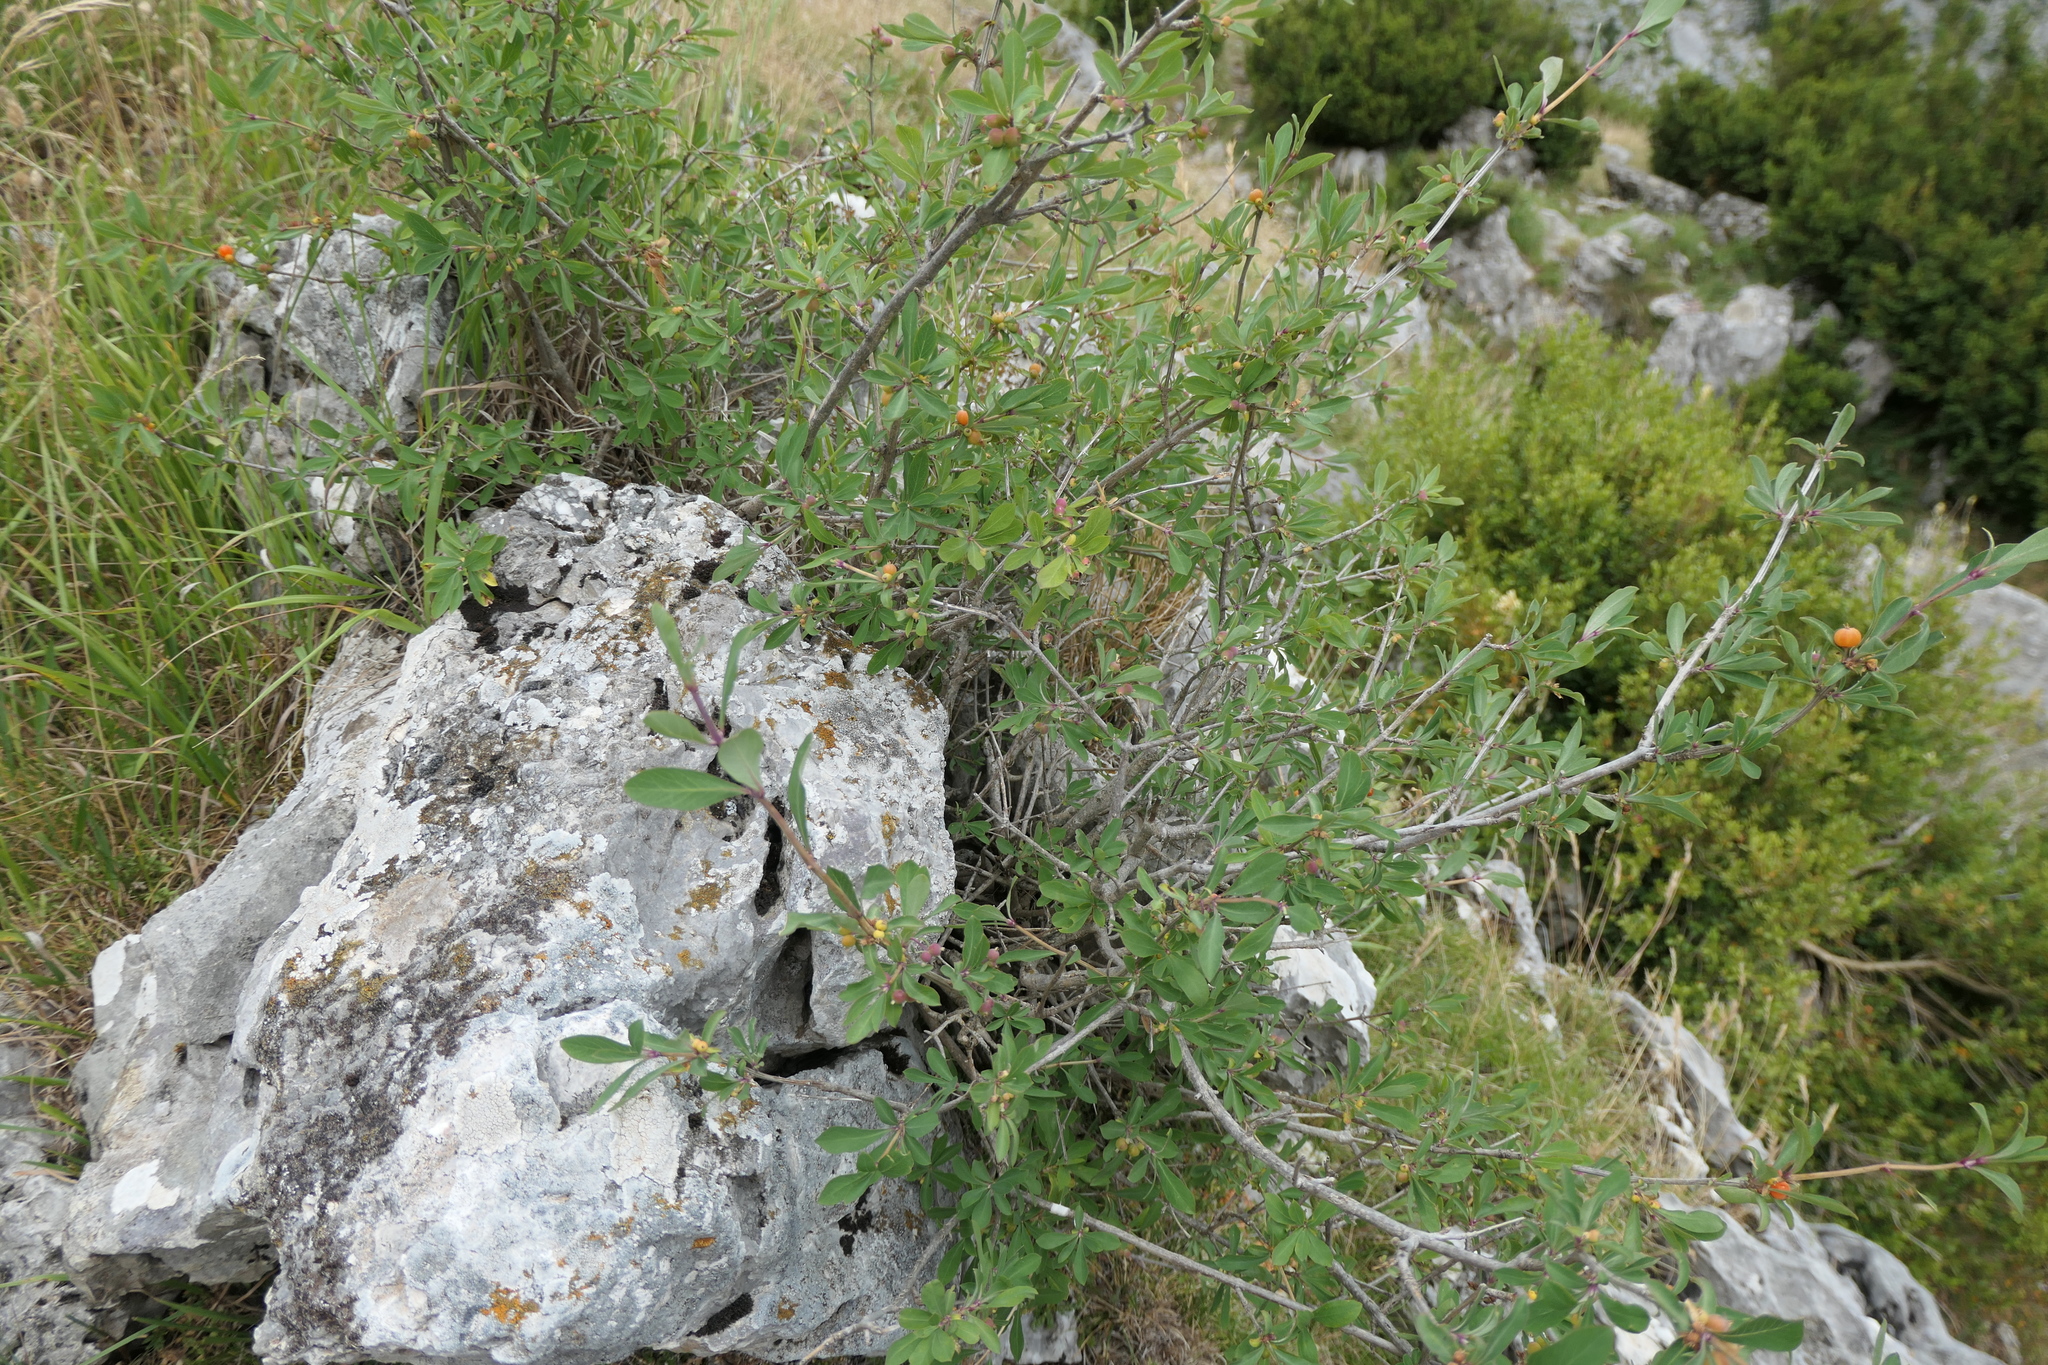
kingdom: Plantae
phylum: Tracheophyta
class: Magnoliopsida
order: Dipsacales
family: Caprifoliaceae
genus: Lonicera
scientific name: Lonicera pyrenaica
